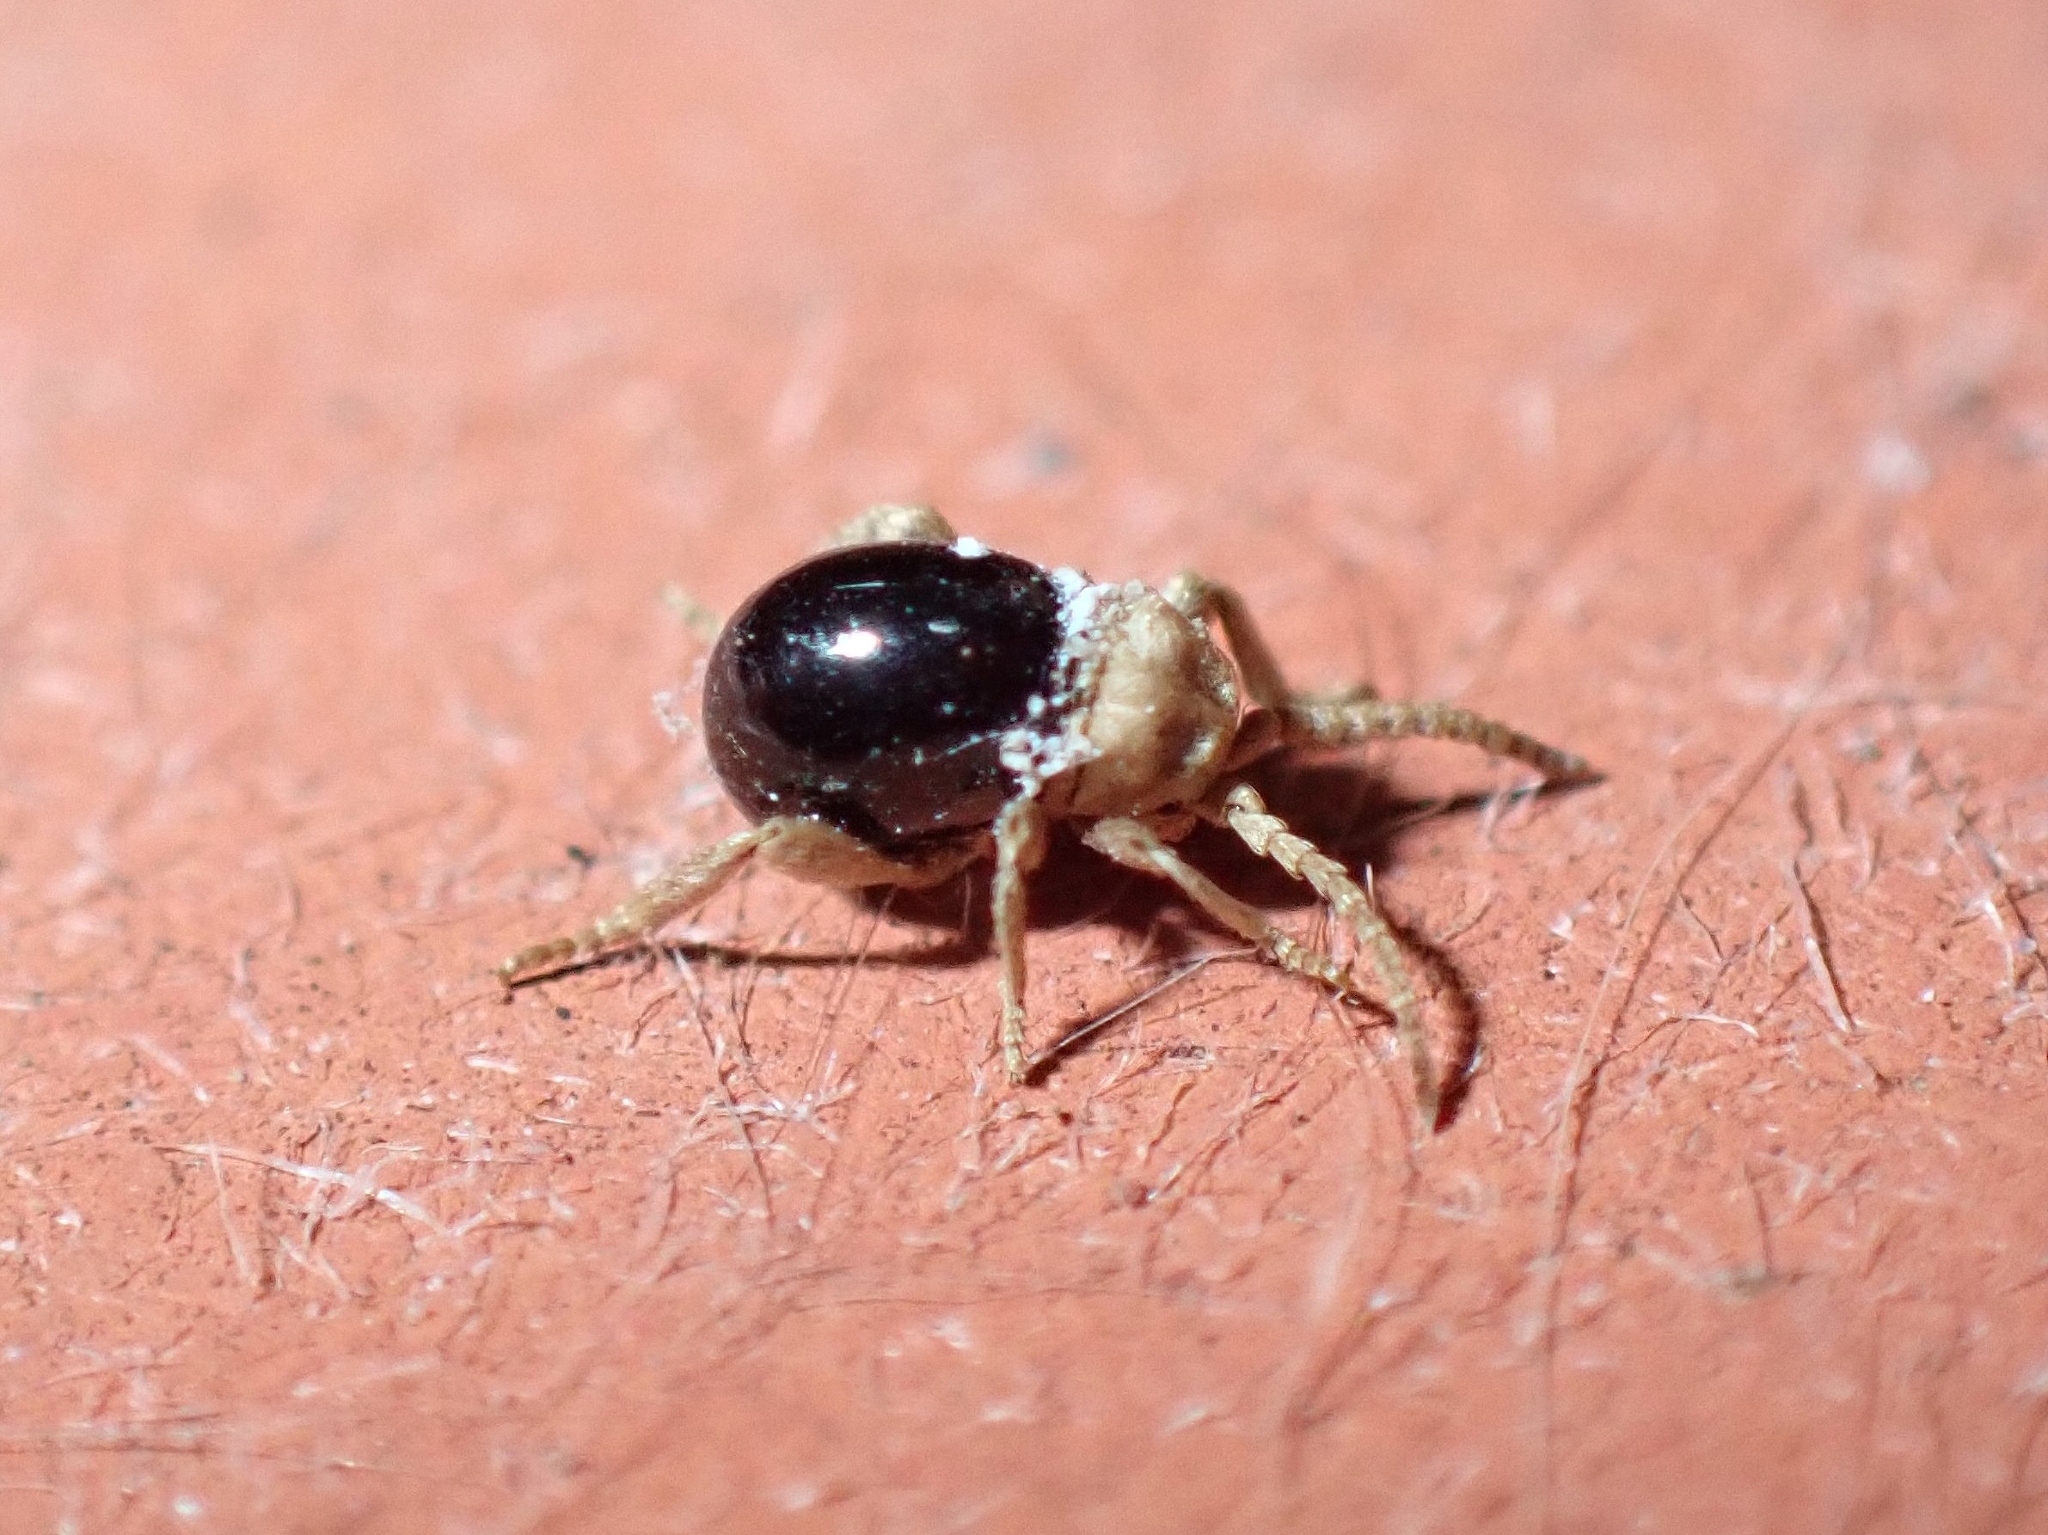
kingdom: Animalia
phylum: Arthropoda
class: Insecta
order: Coleoptera
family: Ptinidae
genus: Mezium
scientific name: Mezium americanum
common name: Spider beetle
